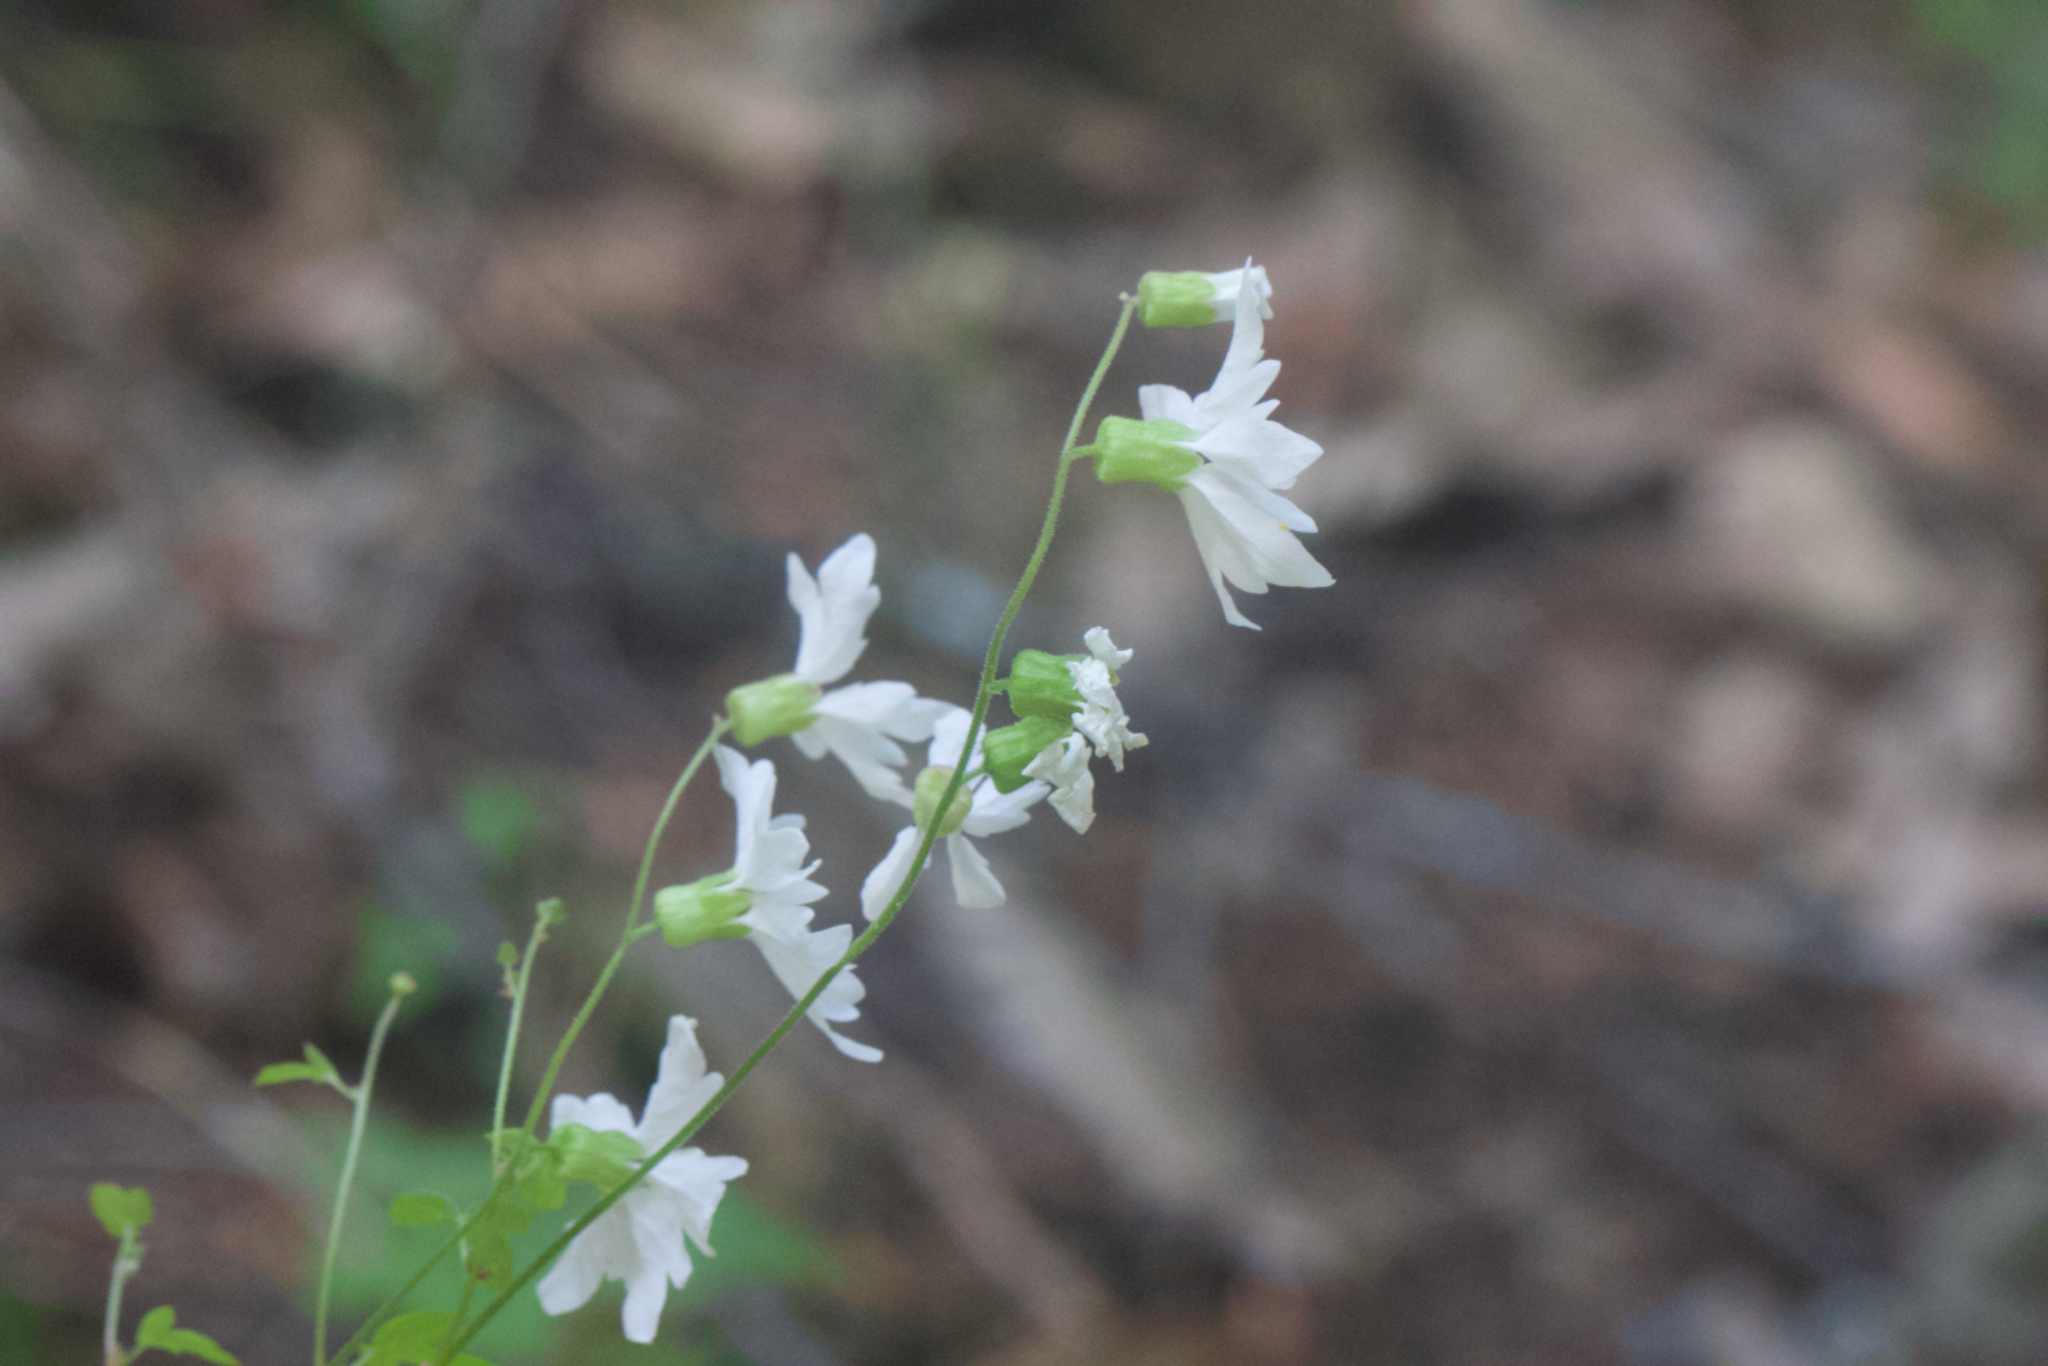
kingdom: Plantae
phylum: Tracheophyta
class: Magnoliopsida
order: Saxifragales
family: Saxifragaceae
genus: Lithophragma
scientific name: Lithophragma heterophyllum
